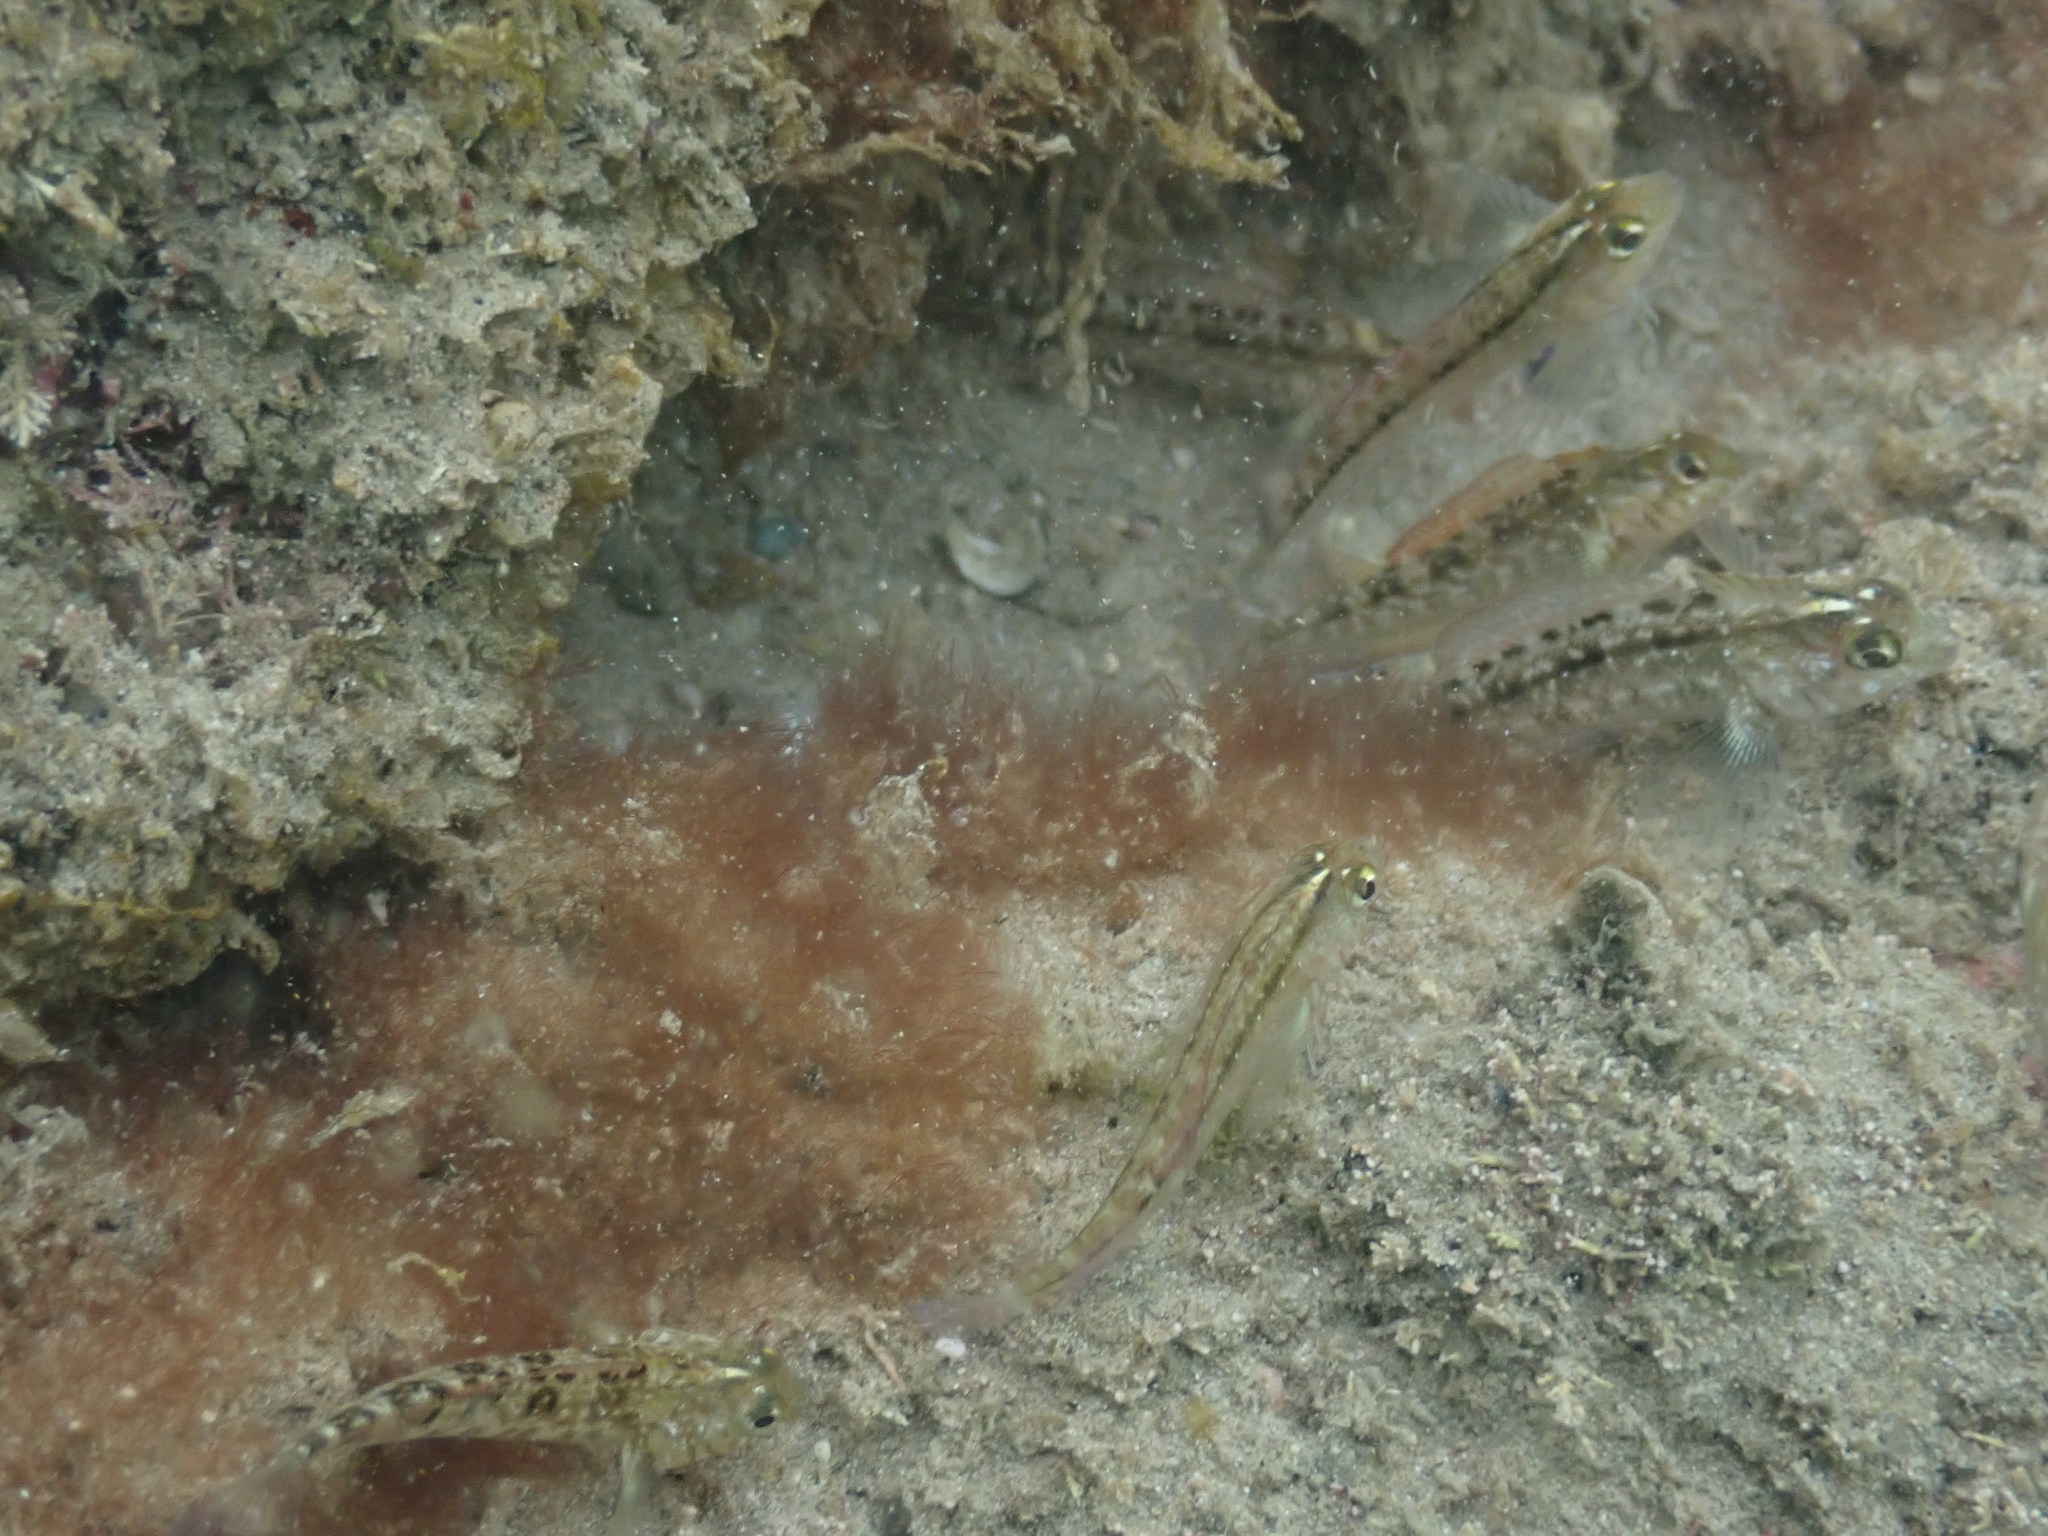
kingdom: Animalia
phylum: Chordata
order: Perciformes
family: Tripterygiidae
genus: Forsterygion
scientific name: Forsterygion lapillum
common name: Common triplefin
